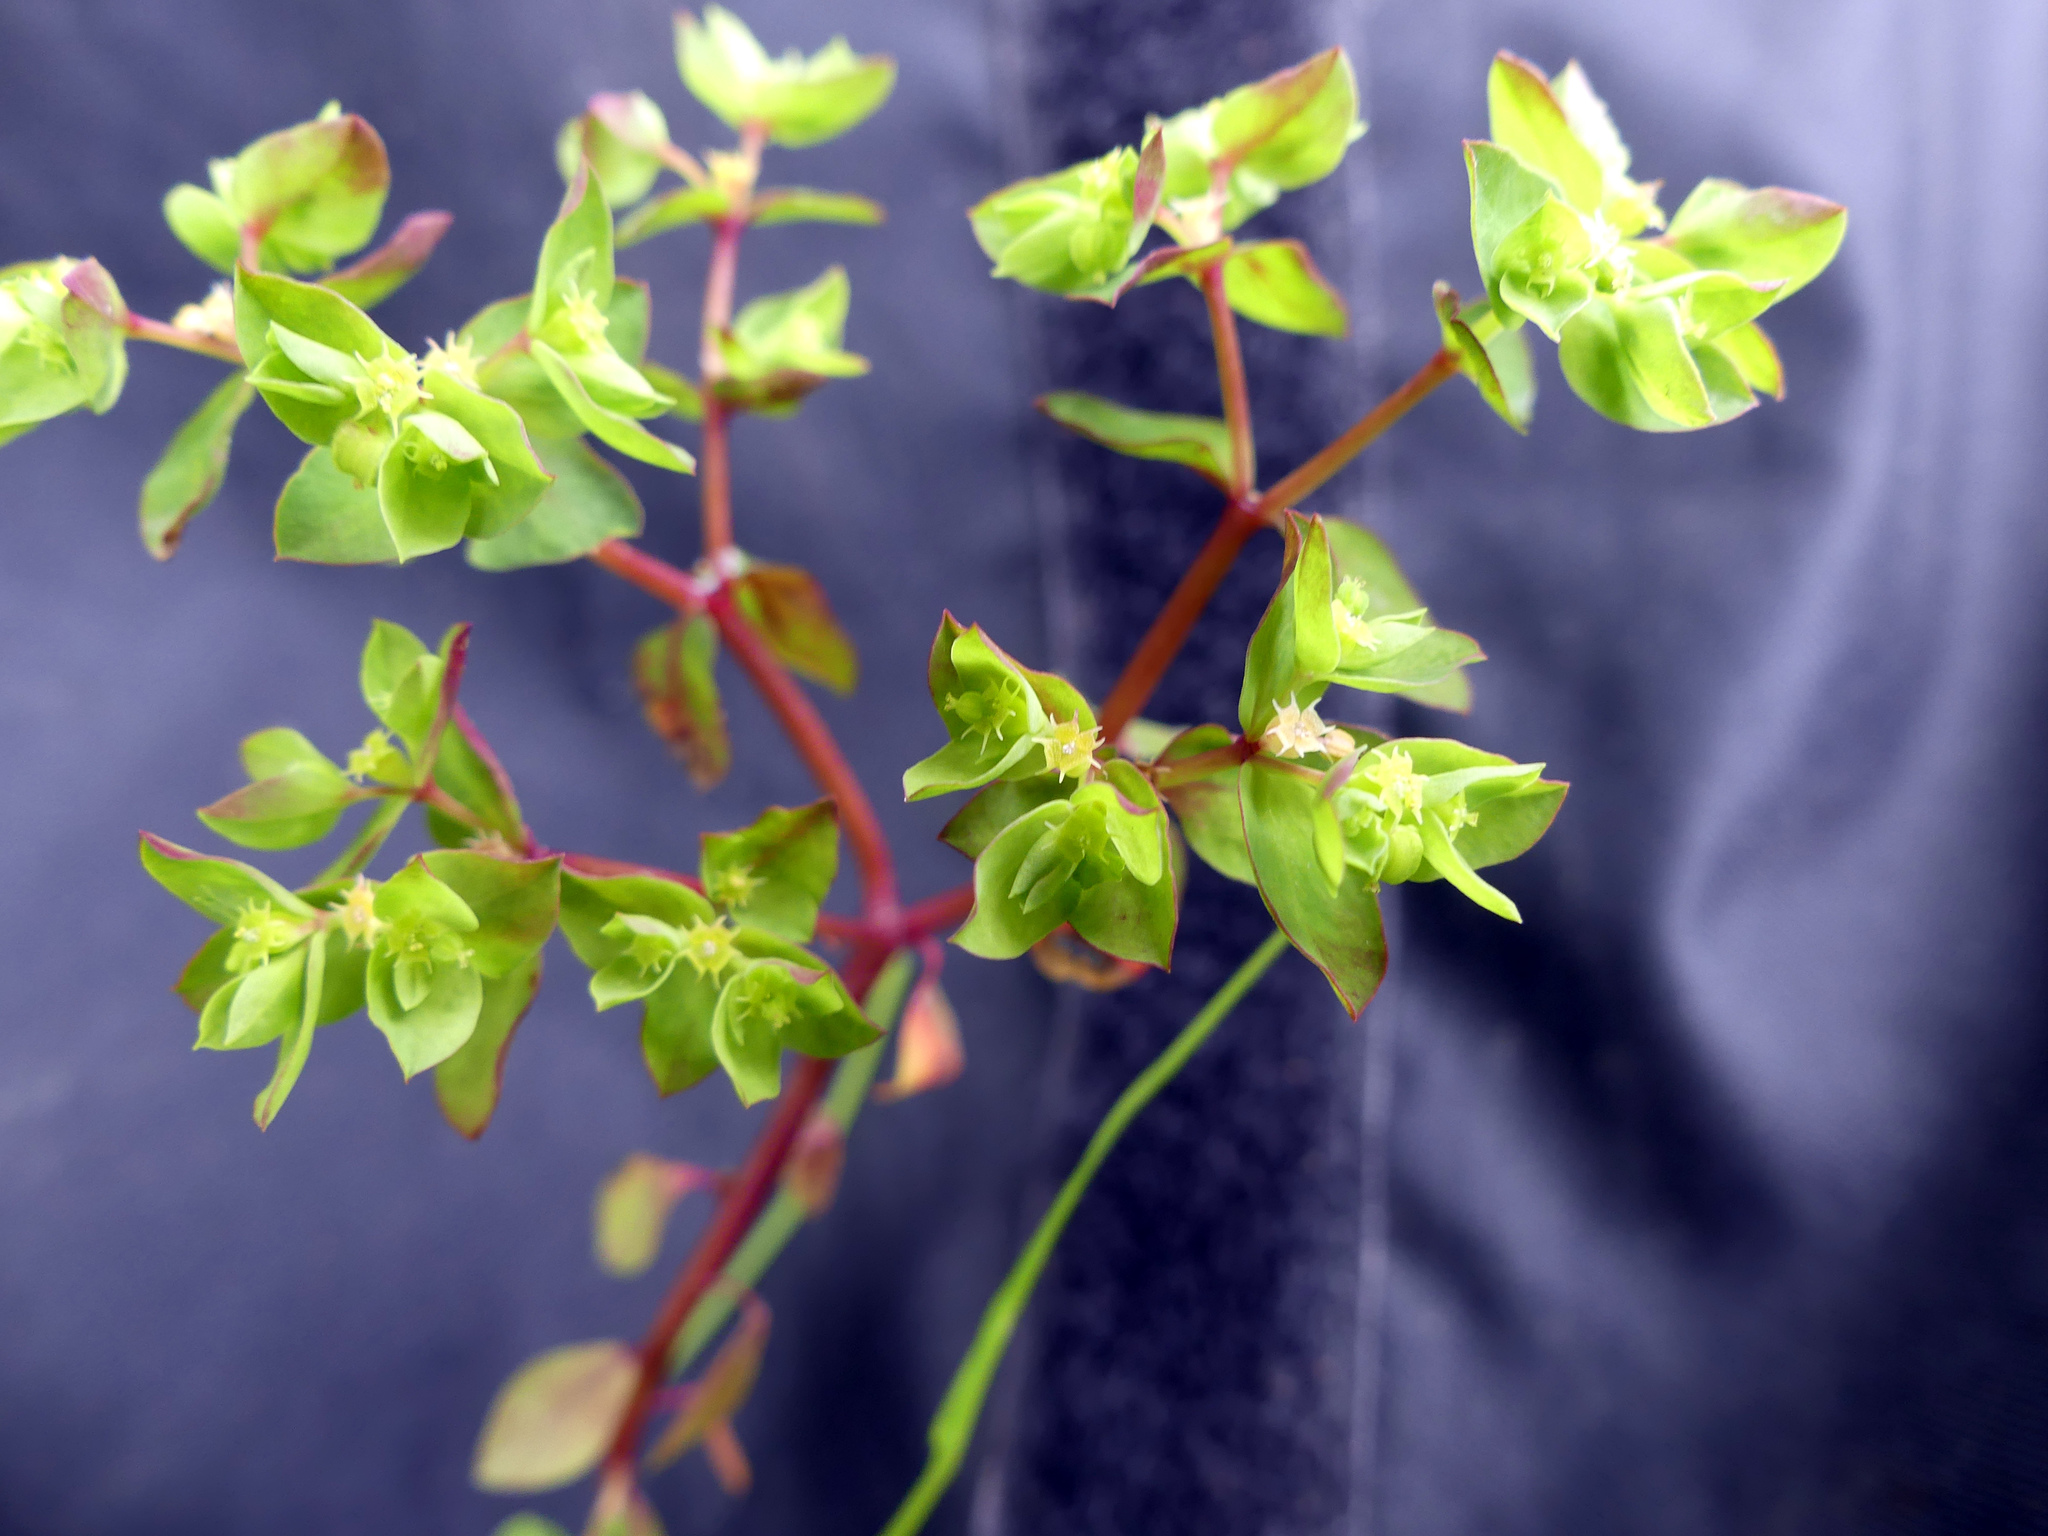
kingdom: Plantae
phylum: Tracheophyta
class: Magnoliopsida
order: Malpighiales
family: Euphorbiaceae
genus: Euphorbia
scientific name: Euphorbia peplus
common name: Petty spurge
